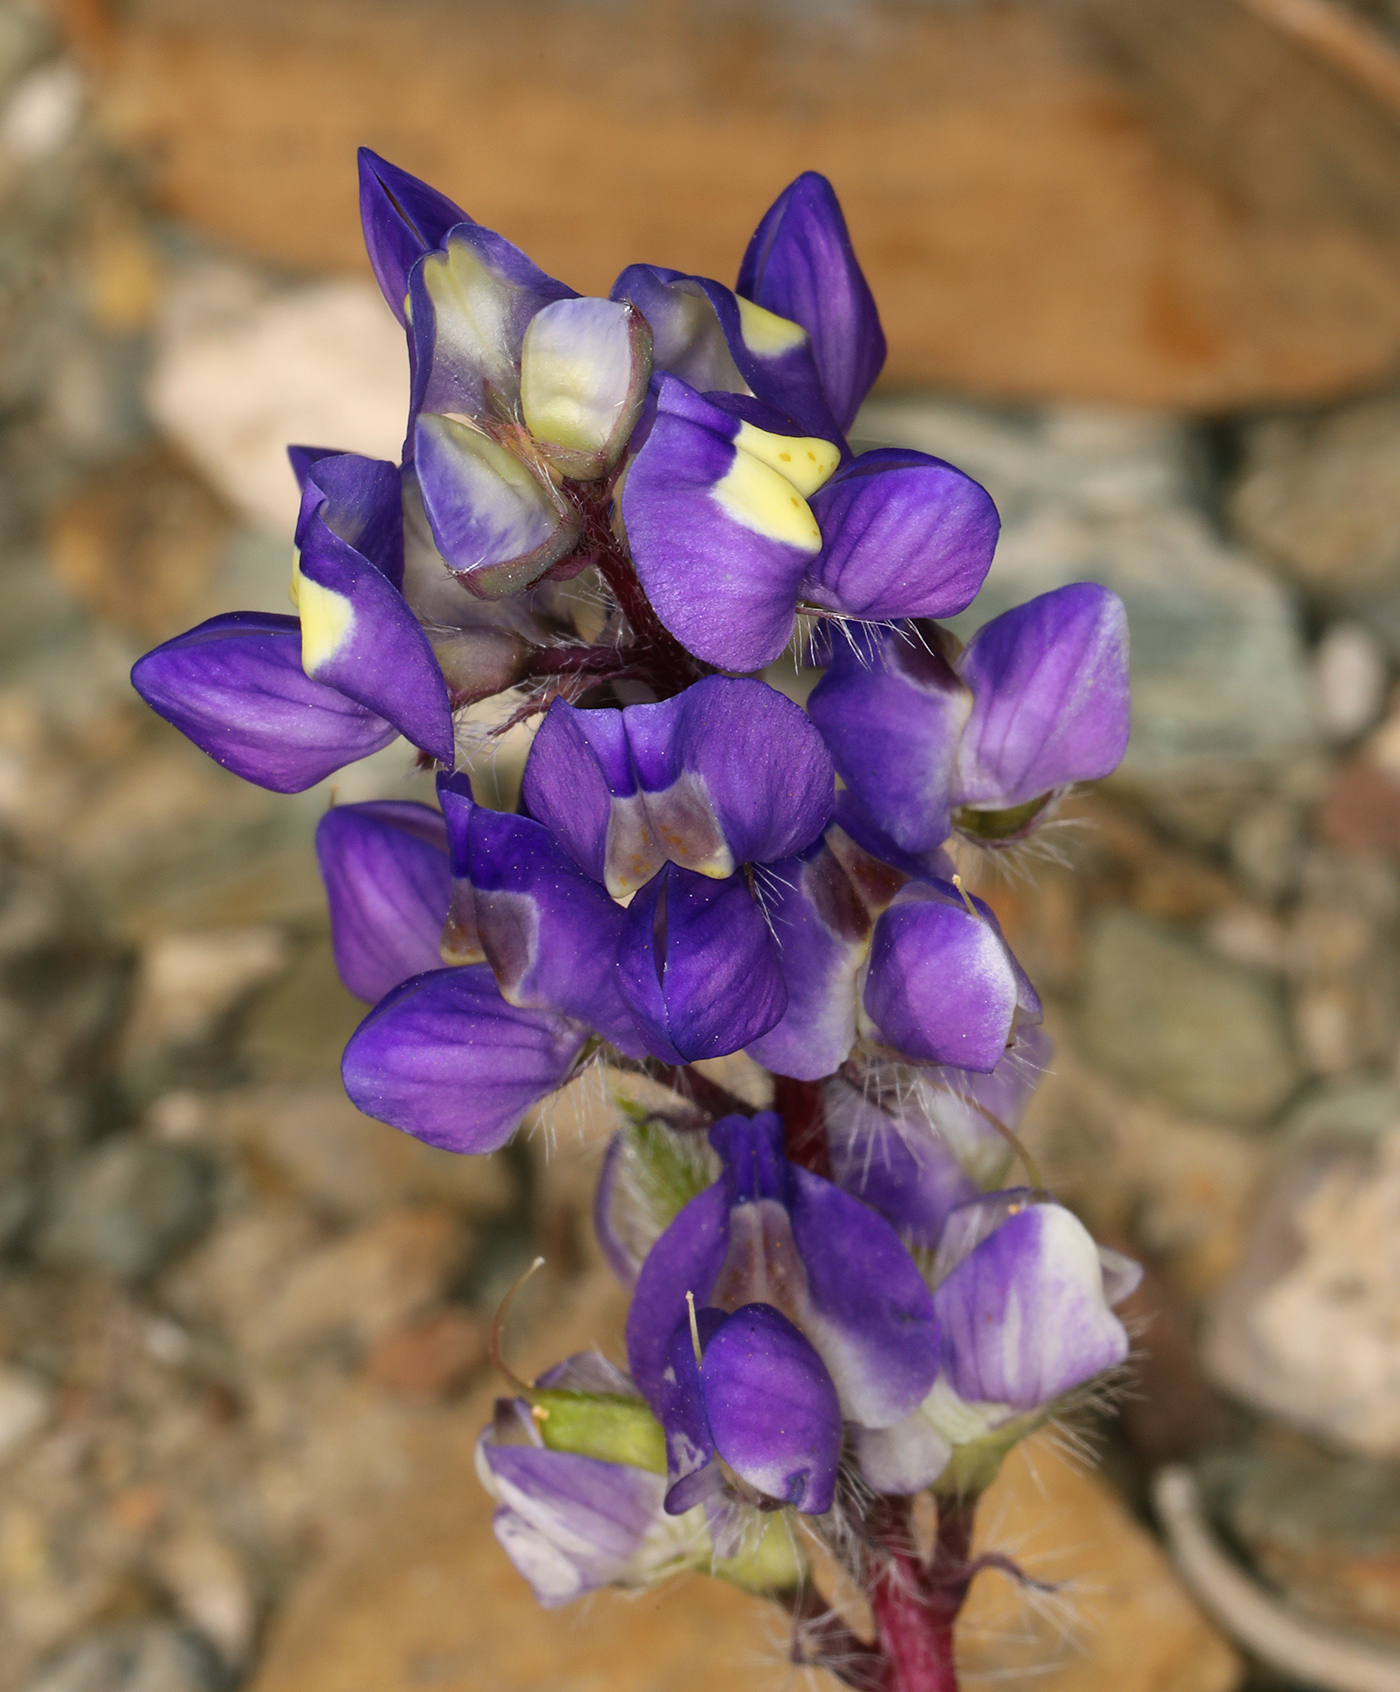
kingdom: Plantae
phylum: Tracheophyta
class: Magnoliopsida
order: Fabales
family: Fabaceae
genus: Lupinus
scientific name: Lupinus flavoculatus
